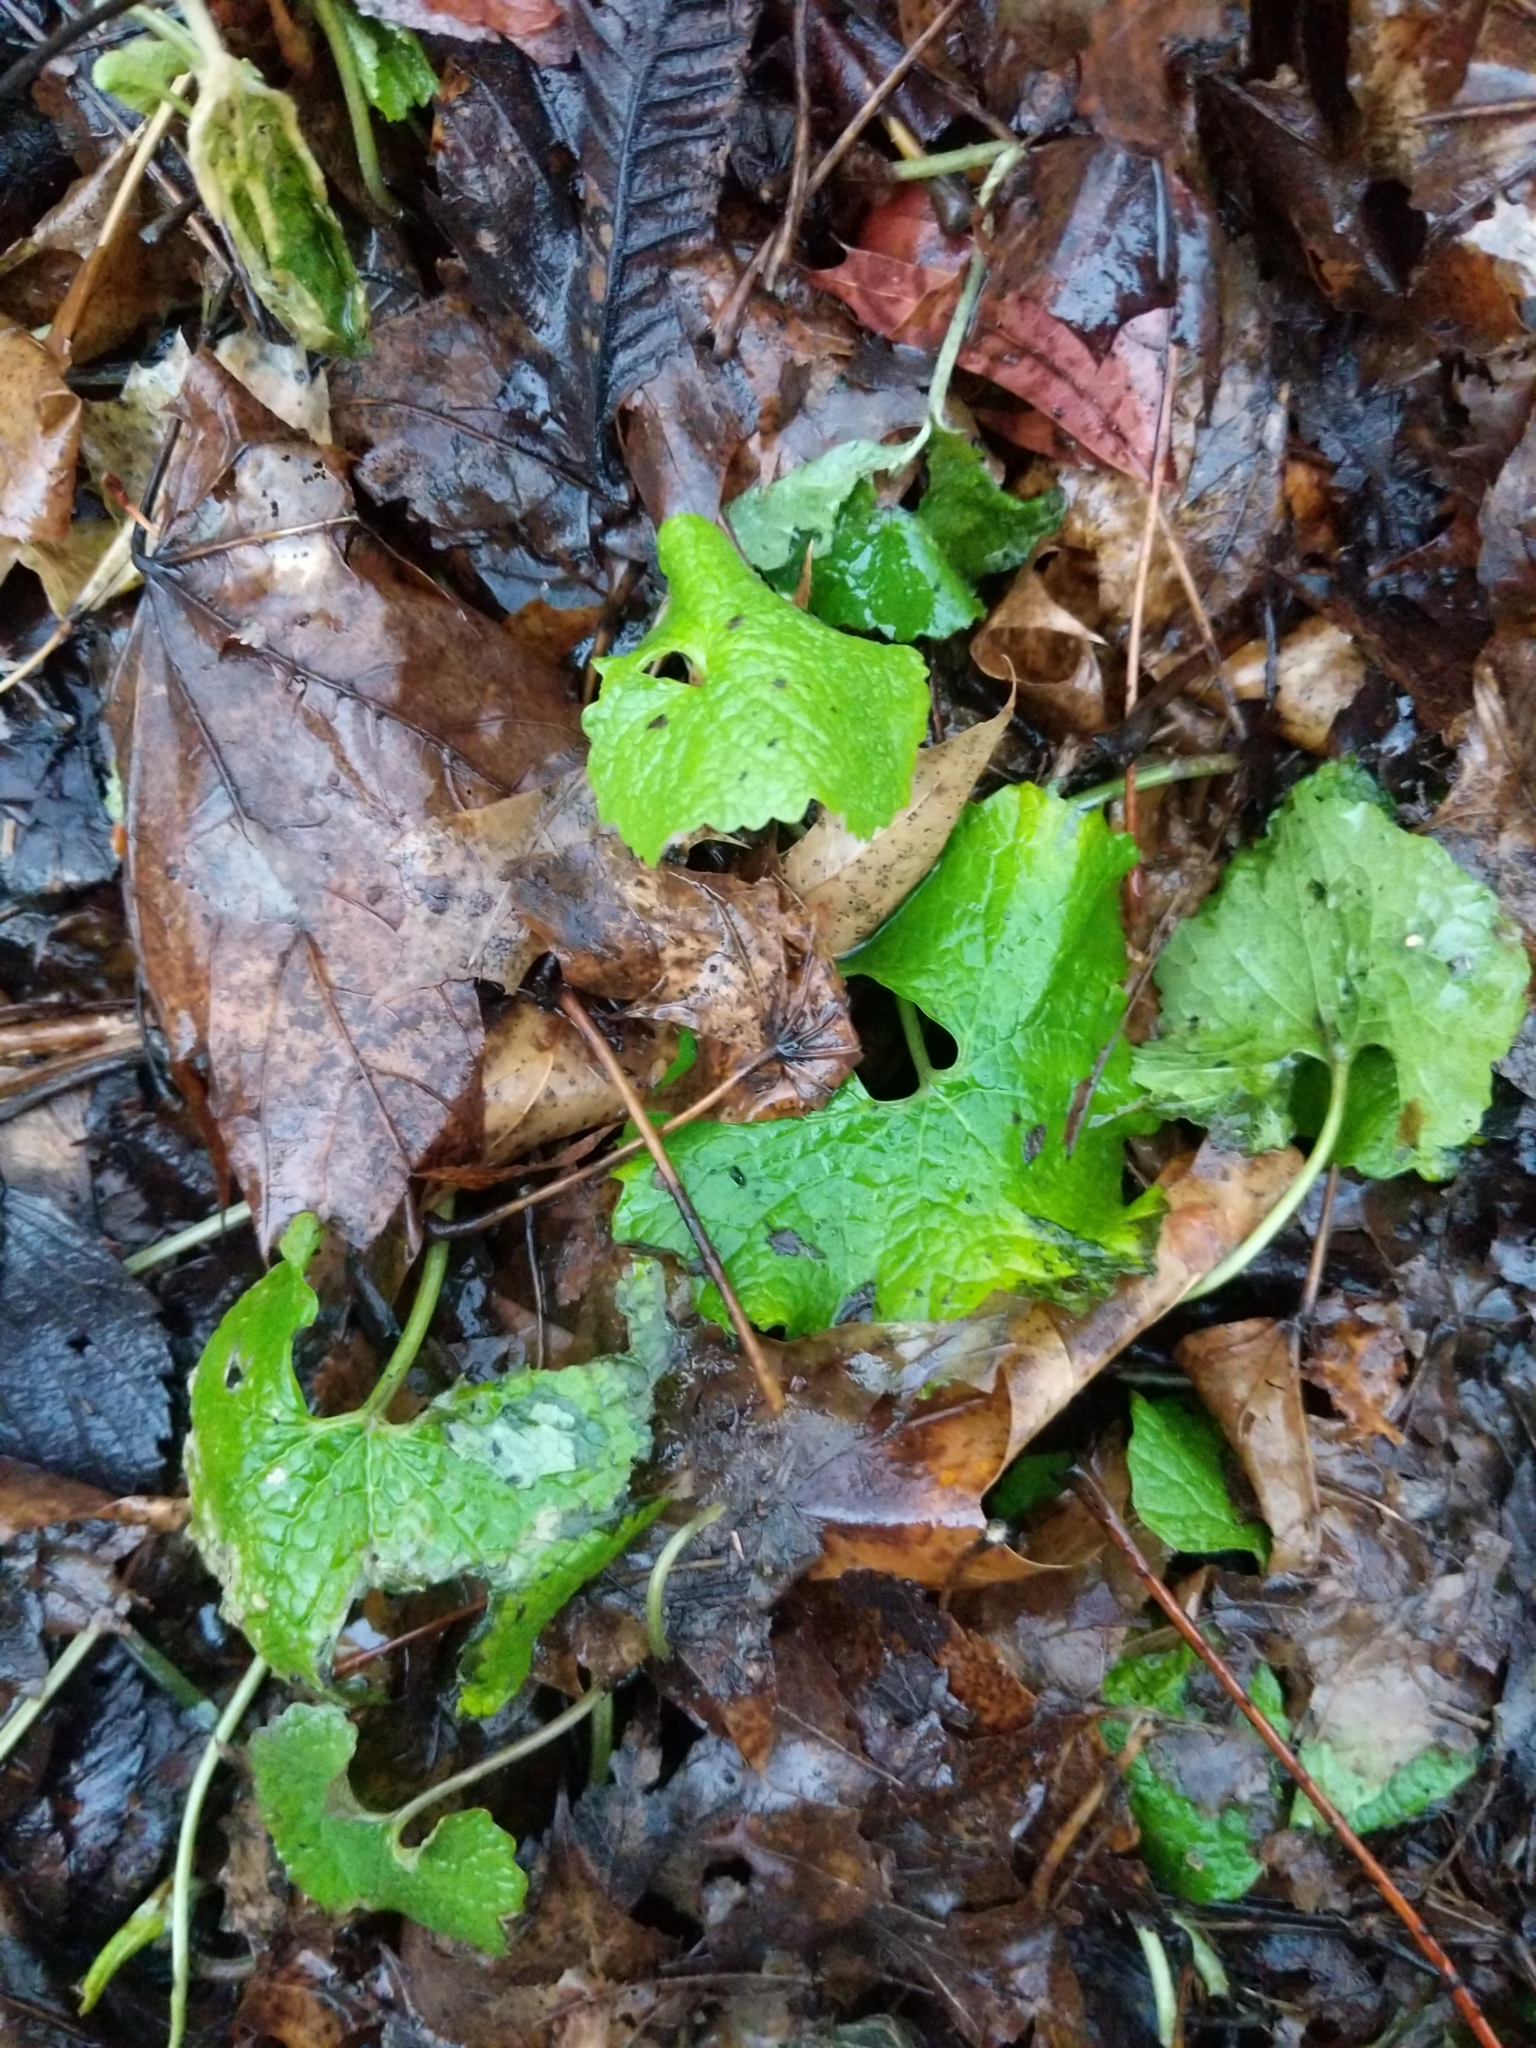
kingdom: Plantae
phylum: Tracheophyta
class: Magnoliopsida
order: Brassicales
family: Brassicaceae
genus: Alliaria
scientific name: Alliaria petiolata
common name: Garlic mustard
